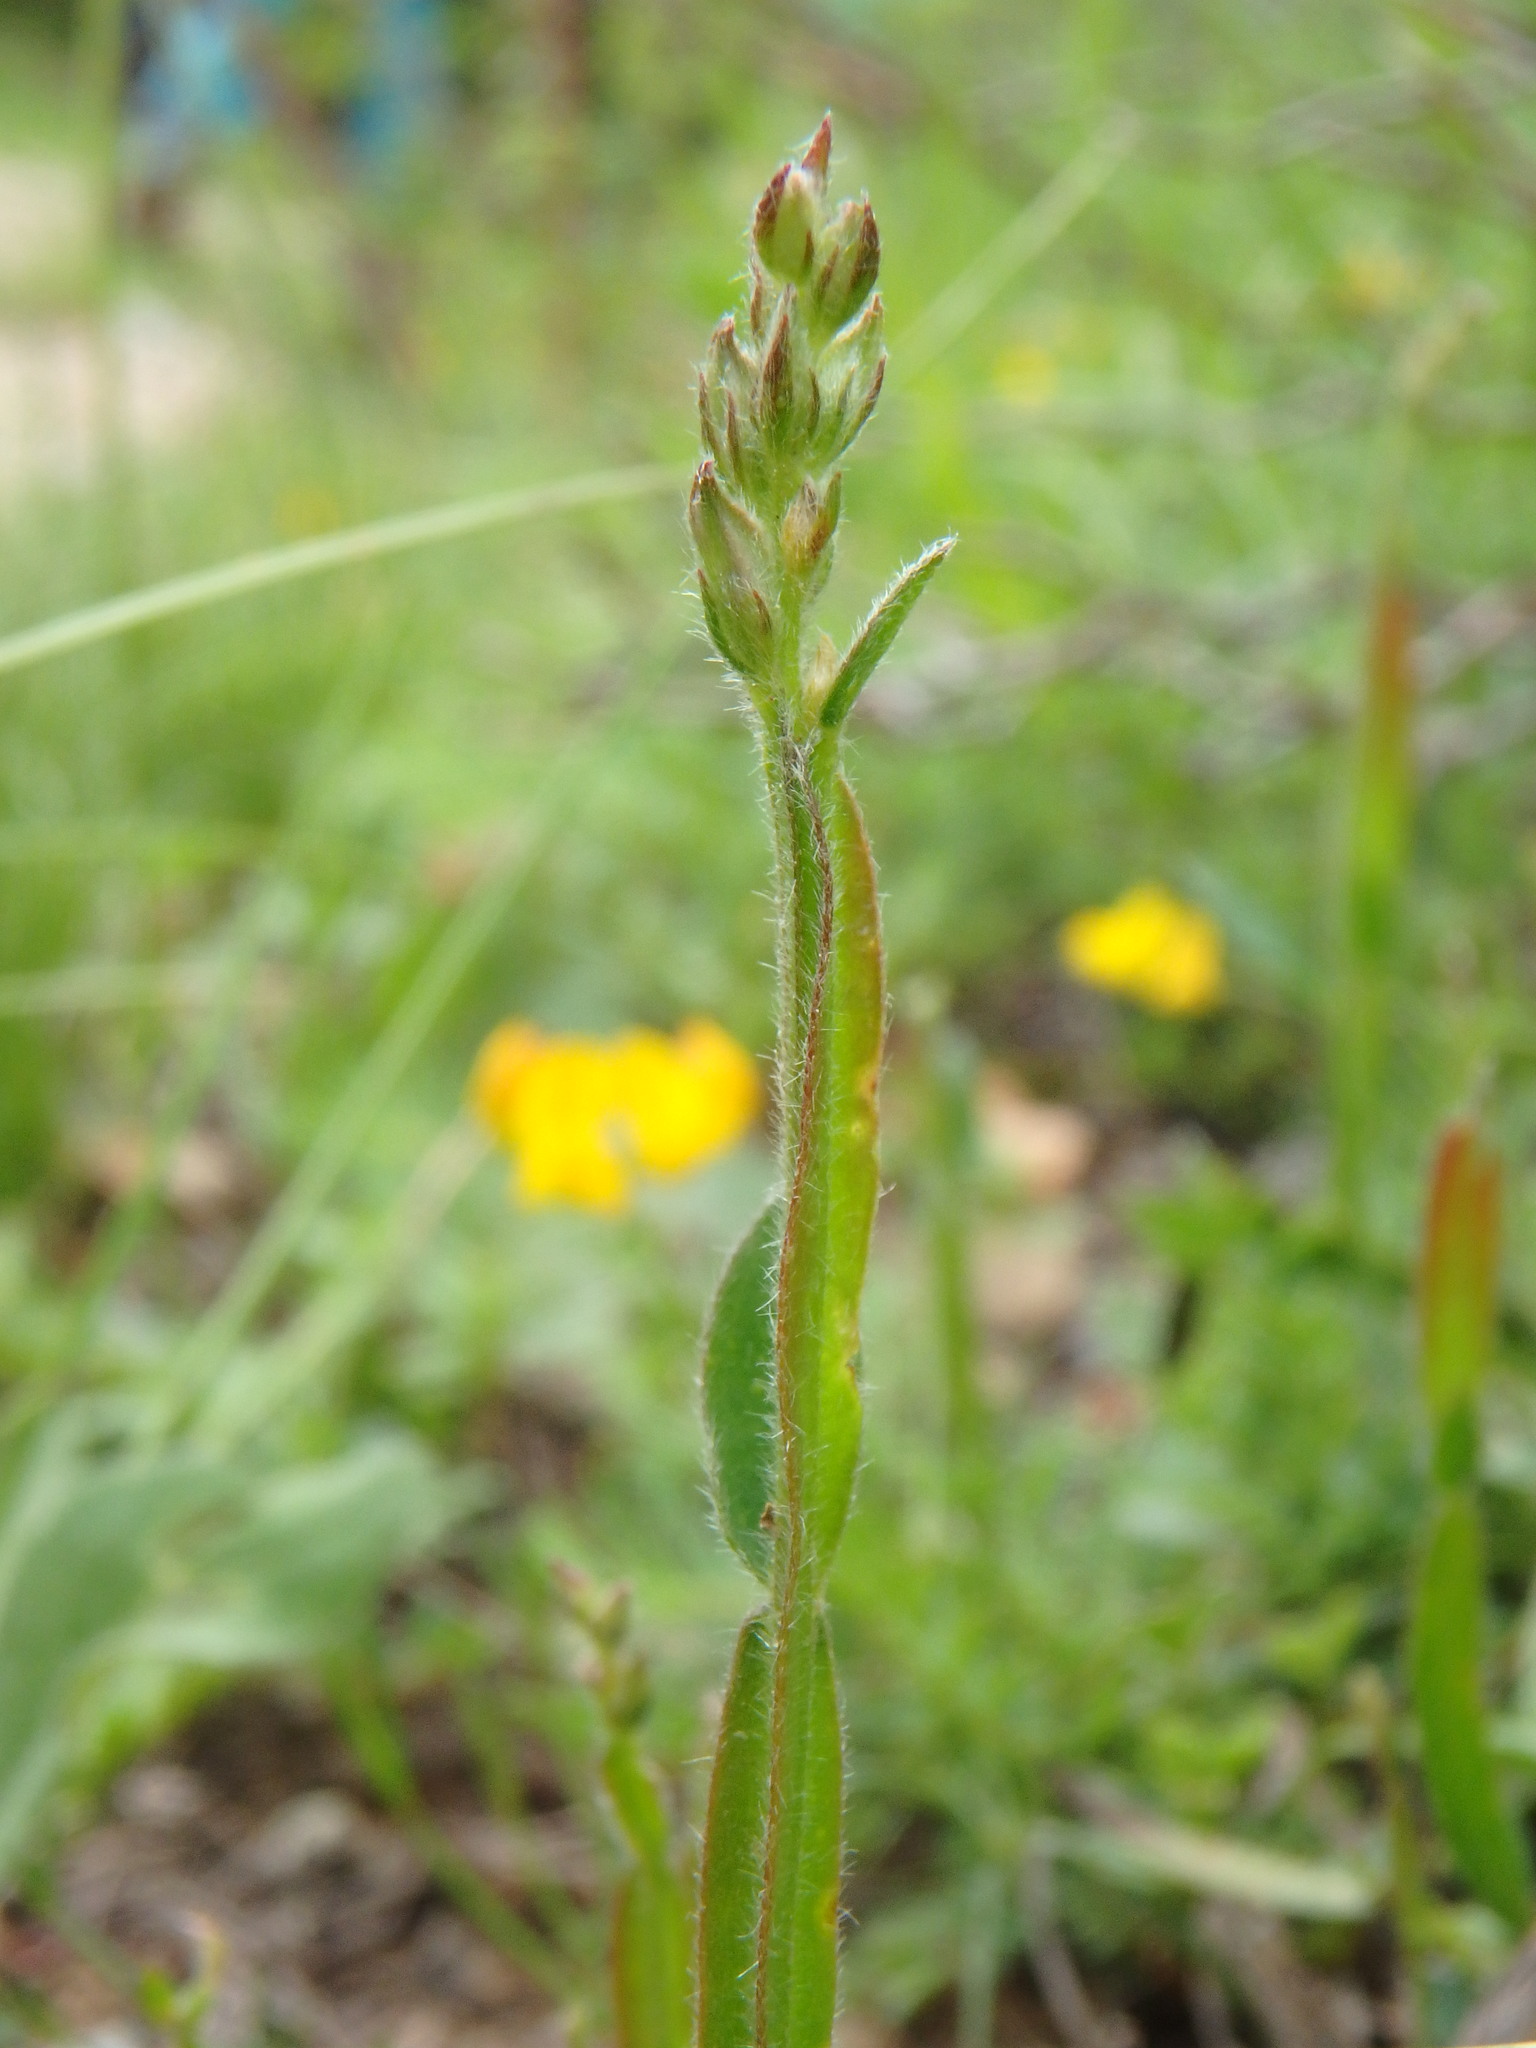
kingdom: Plantae
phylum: Tracheophyta
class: Magnoliopsida
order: Fabales
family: Fabaceae
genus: Genista
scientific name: Genista sagittalis
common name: Winged greenweed
